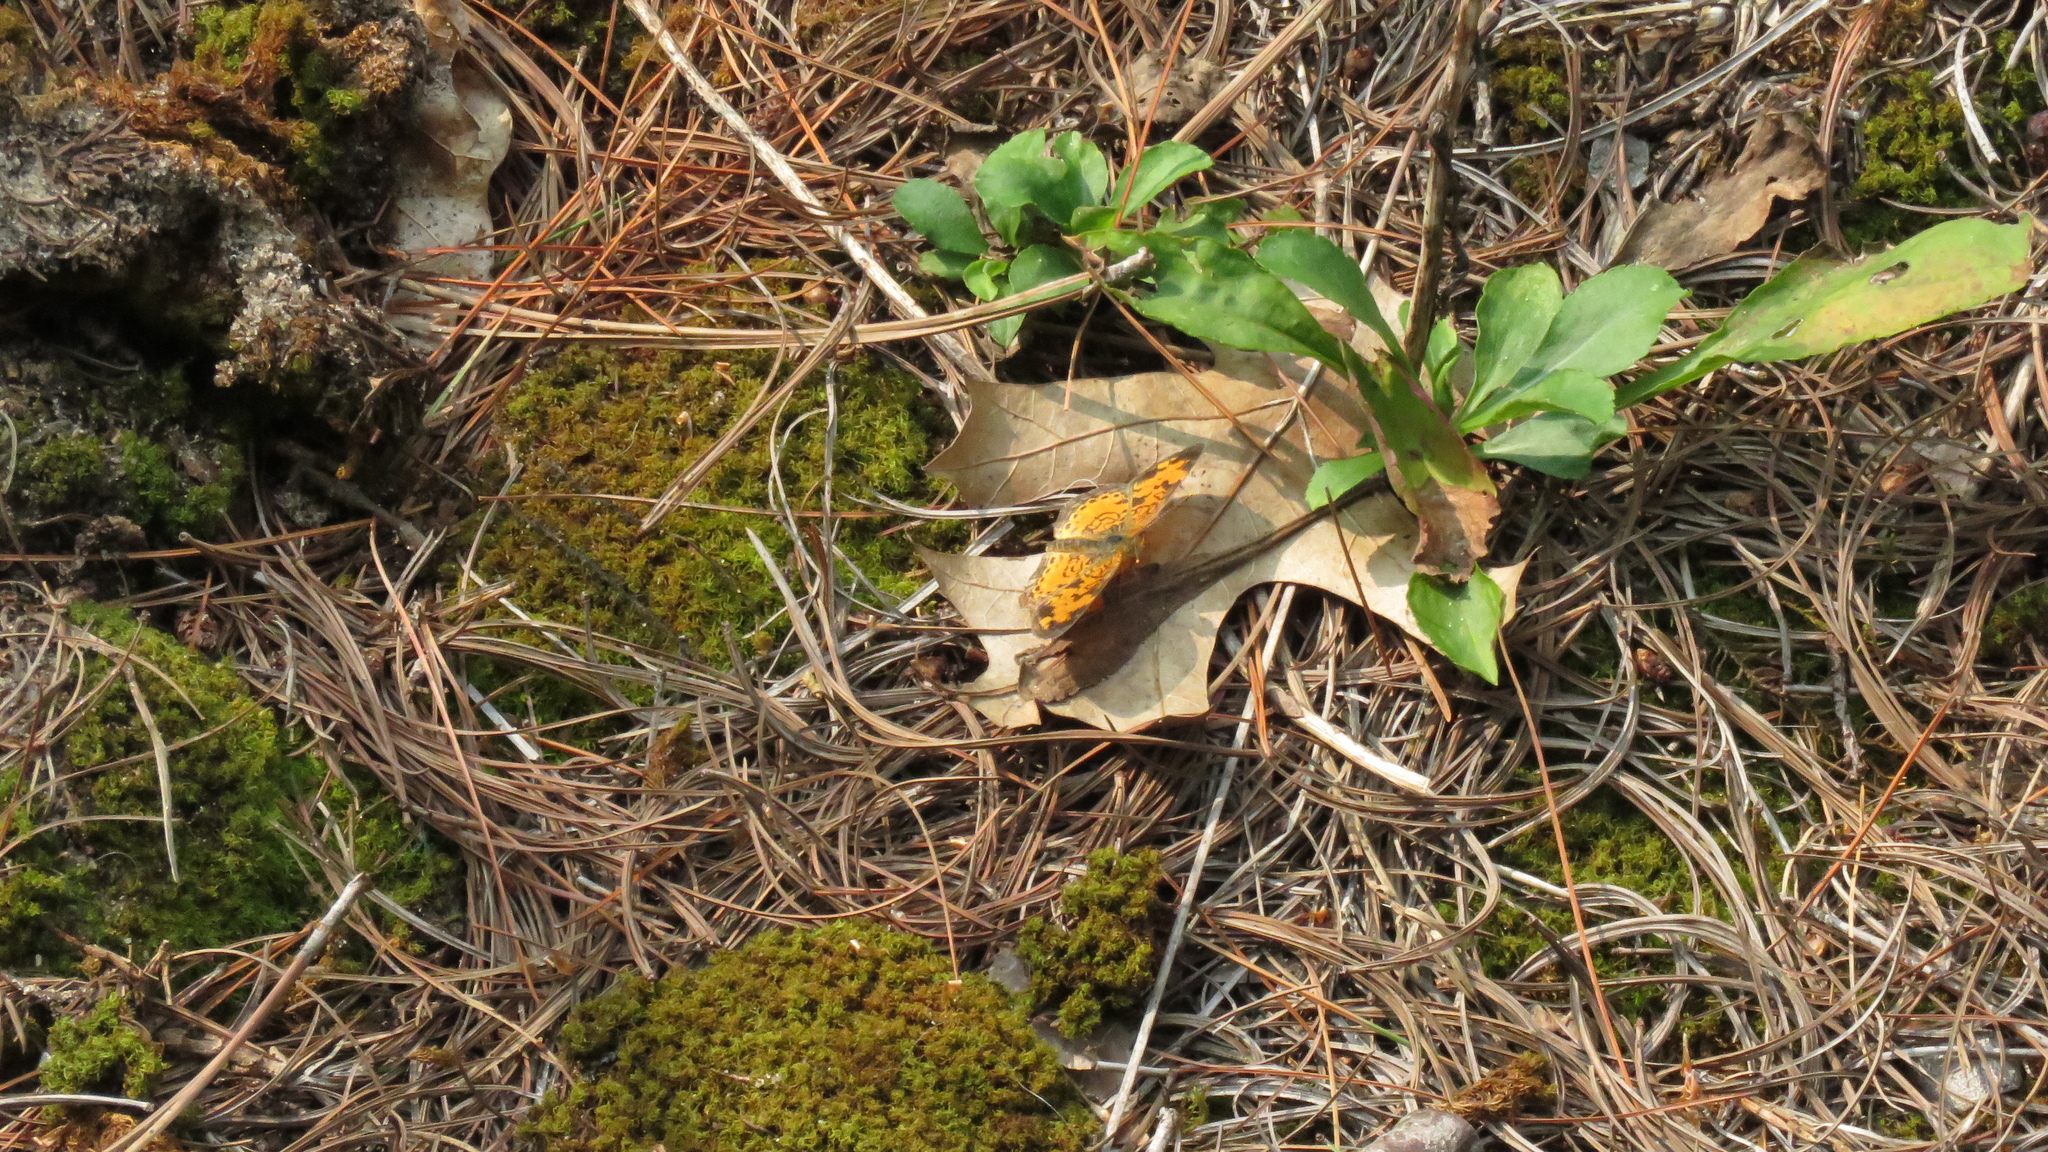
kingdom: Animalia
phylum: Arthropoda
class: Insecta
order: Lepidoptera
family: Nymphalidae
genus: Phyciodes
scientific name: Phyciodes tharos
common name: Pearl crescent
